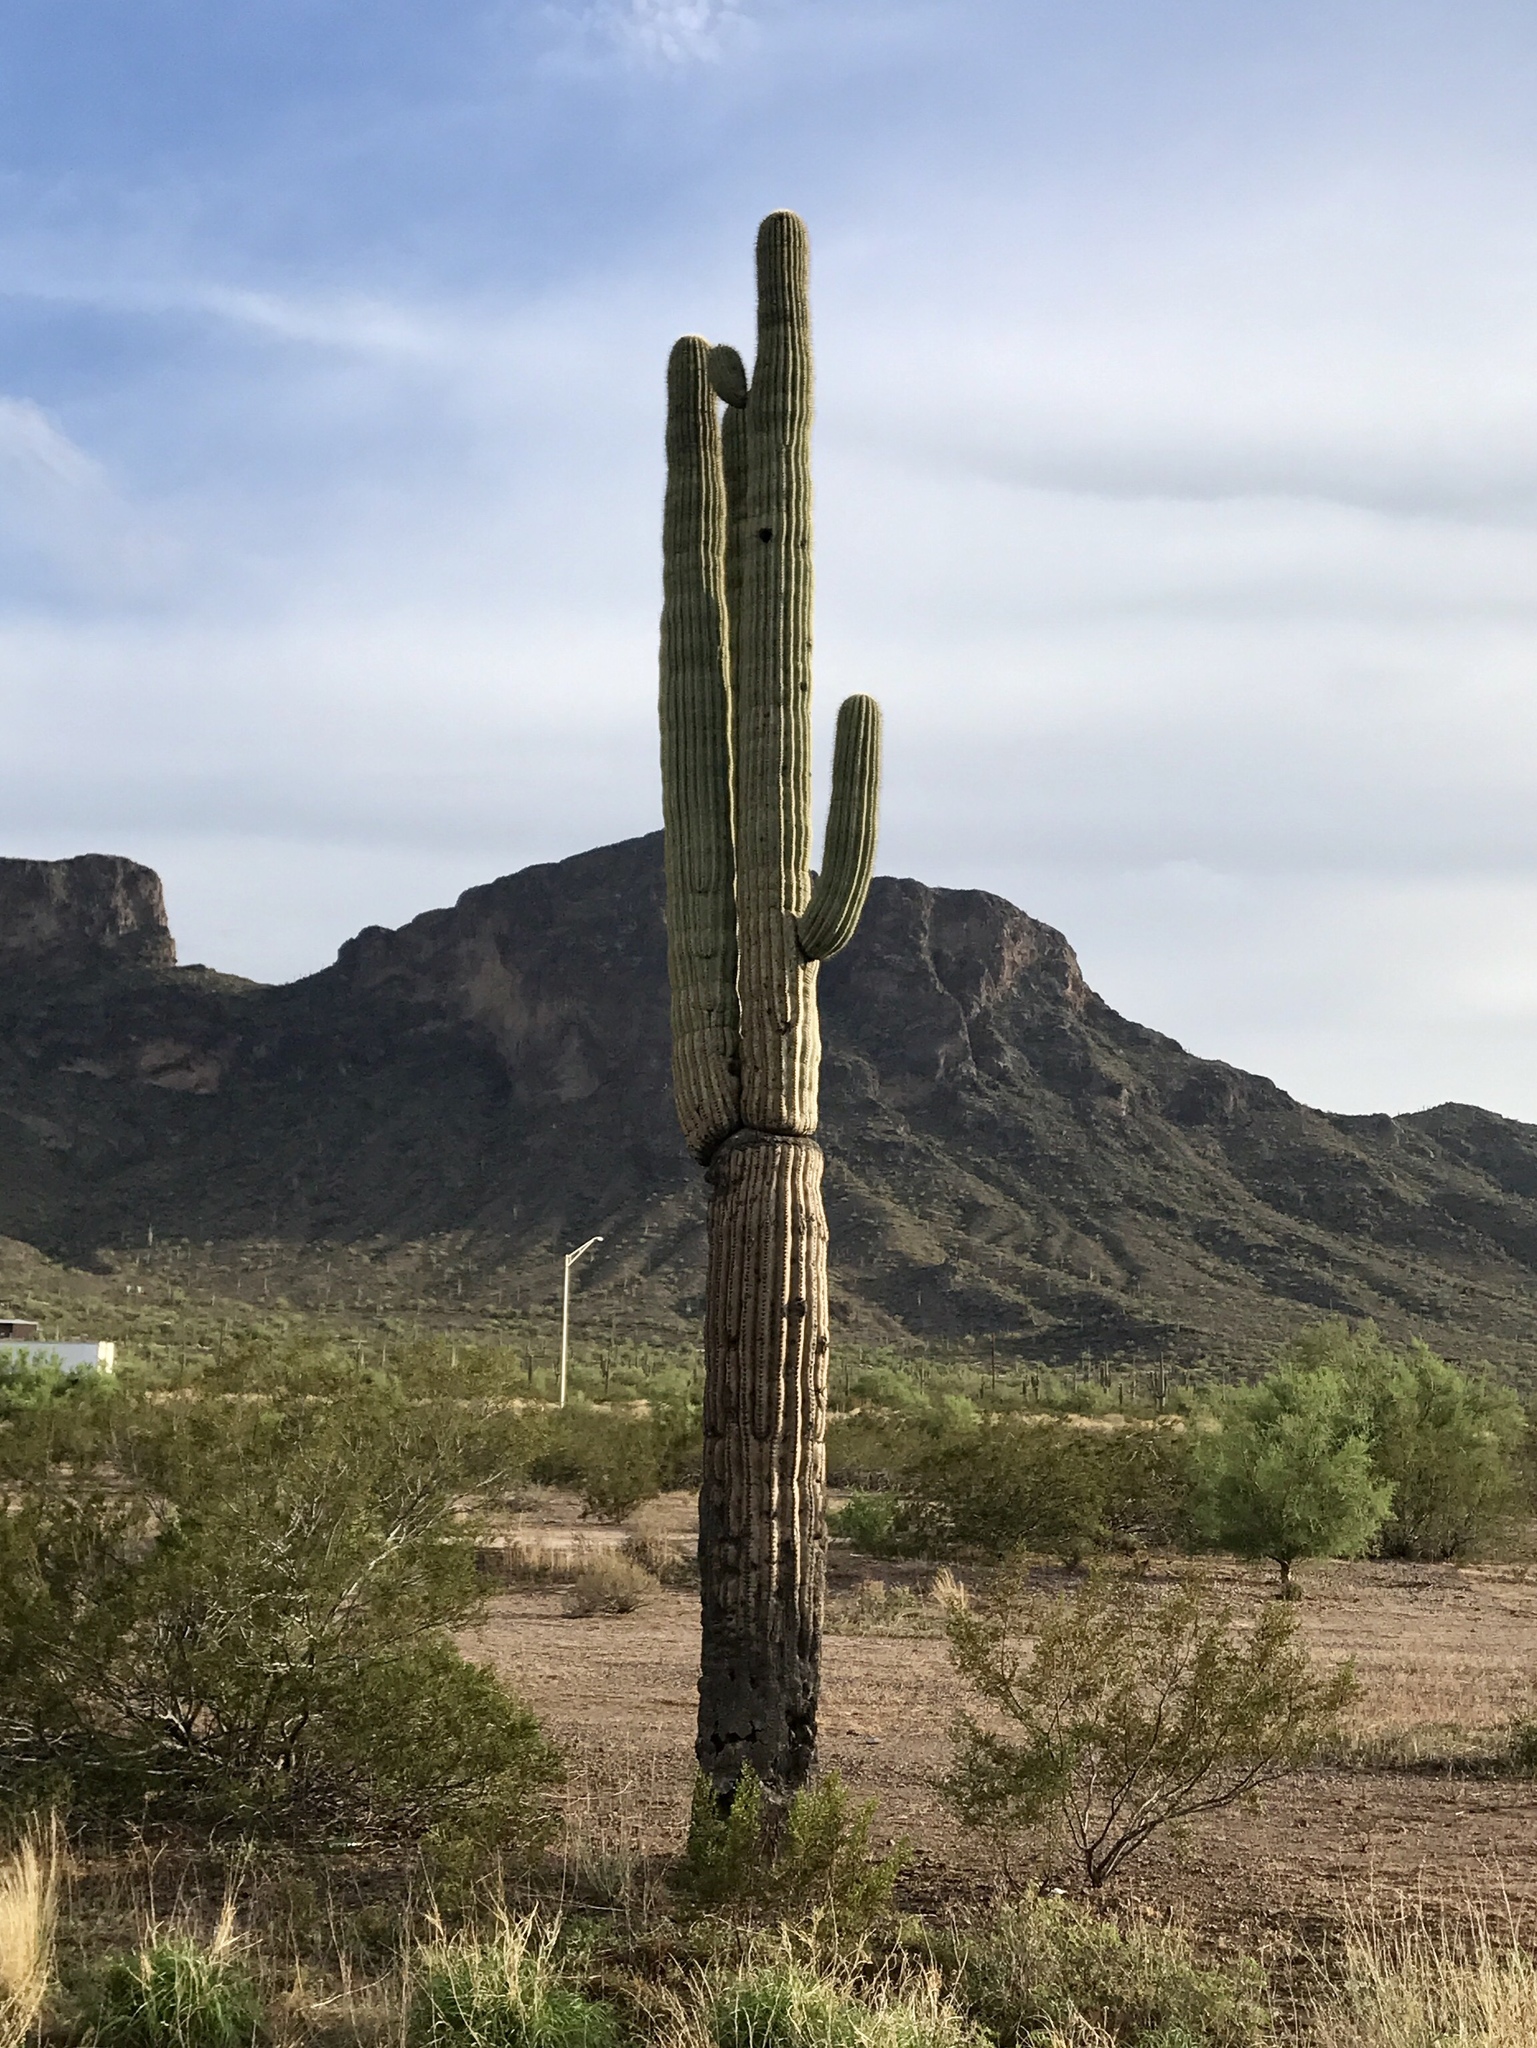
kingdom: Plantae
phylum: Tracheophyta
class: Magnoliopsida
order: Caryophyllales
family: Cactaceae
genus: Carnegiea
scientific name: Carnegiea gigantea
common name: Saguaro
